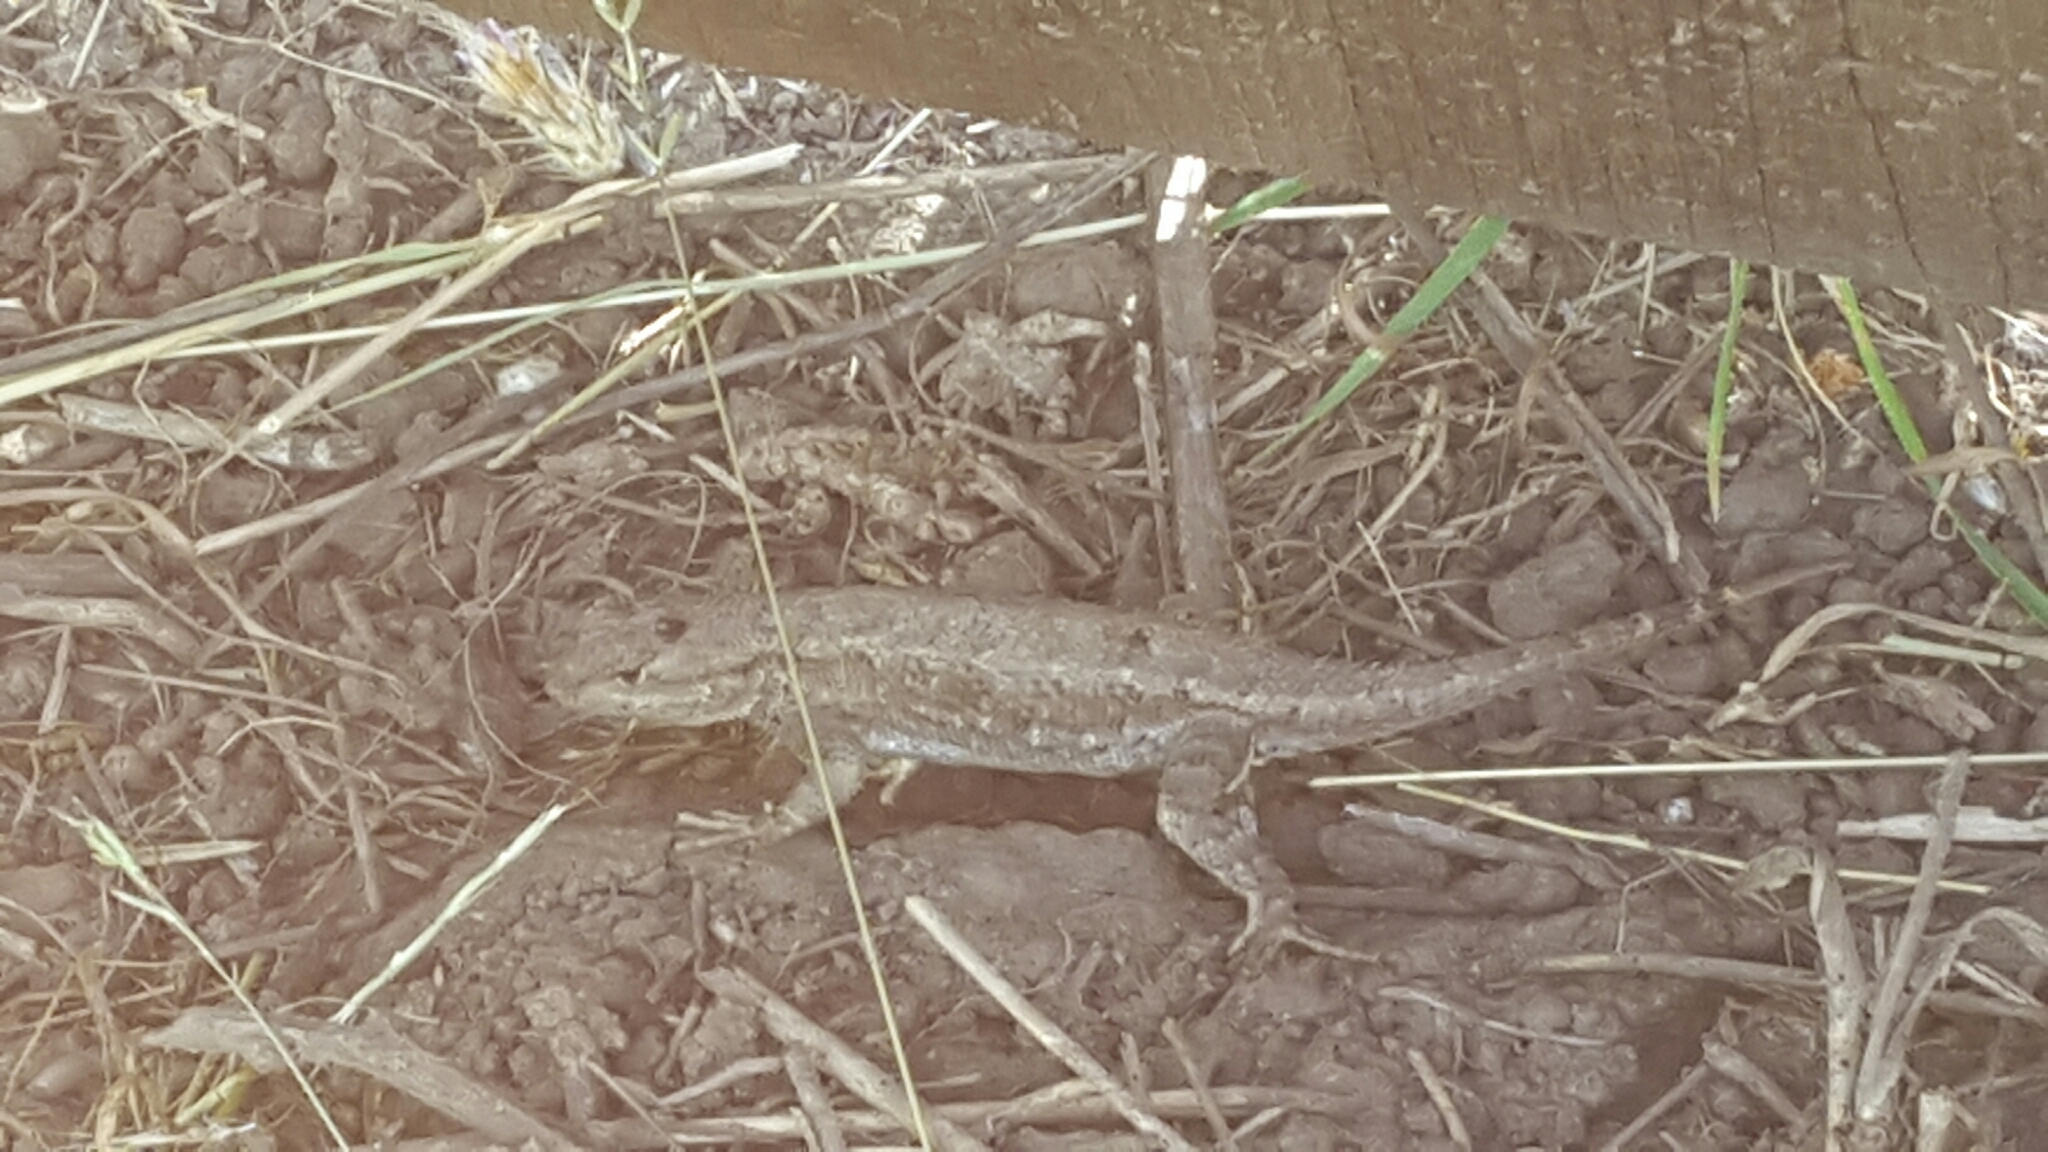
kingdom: Animalia
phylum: Chordata
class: Squamata
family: Phrynosomatidae
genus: Sceloporus
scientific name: Sceloporus occidentalis
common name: Western fence lizard
